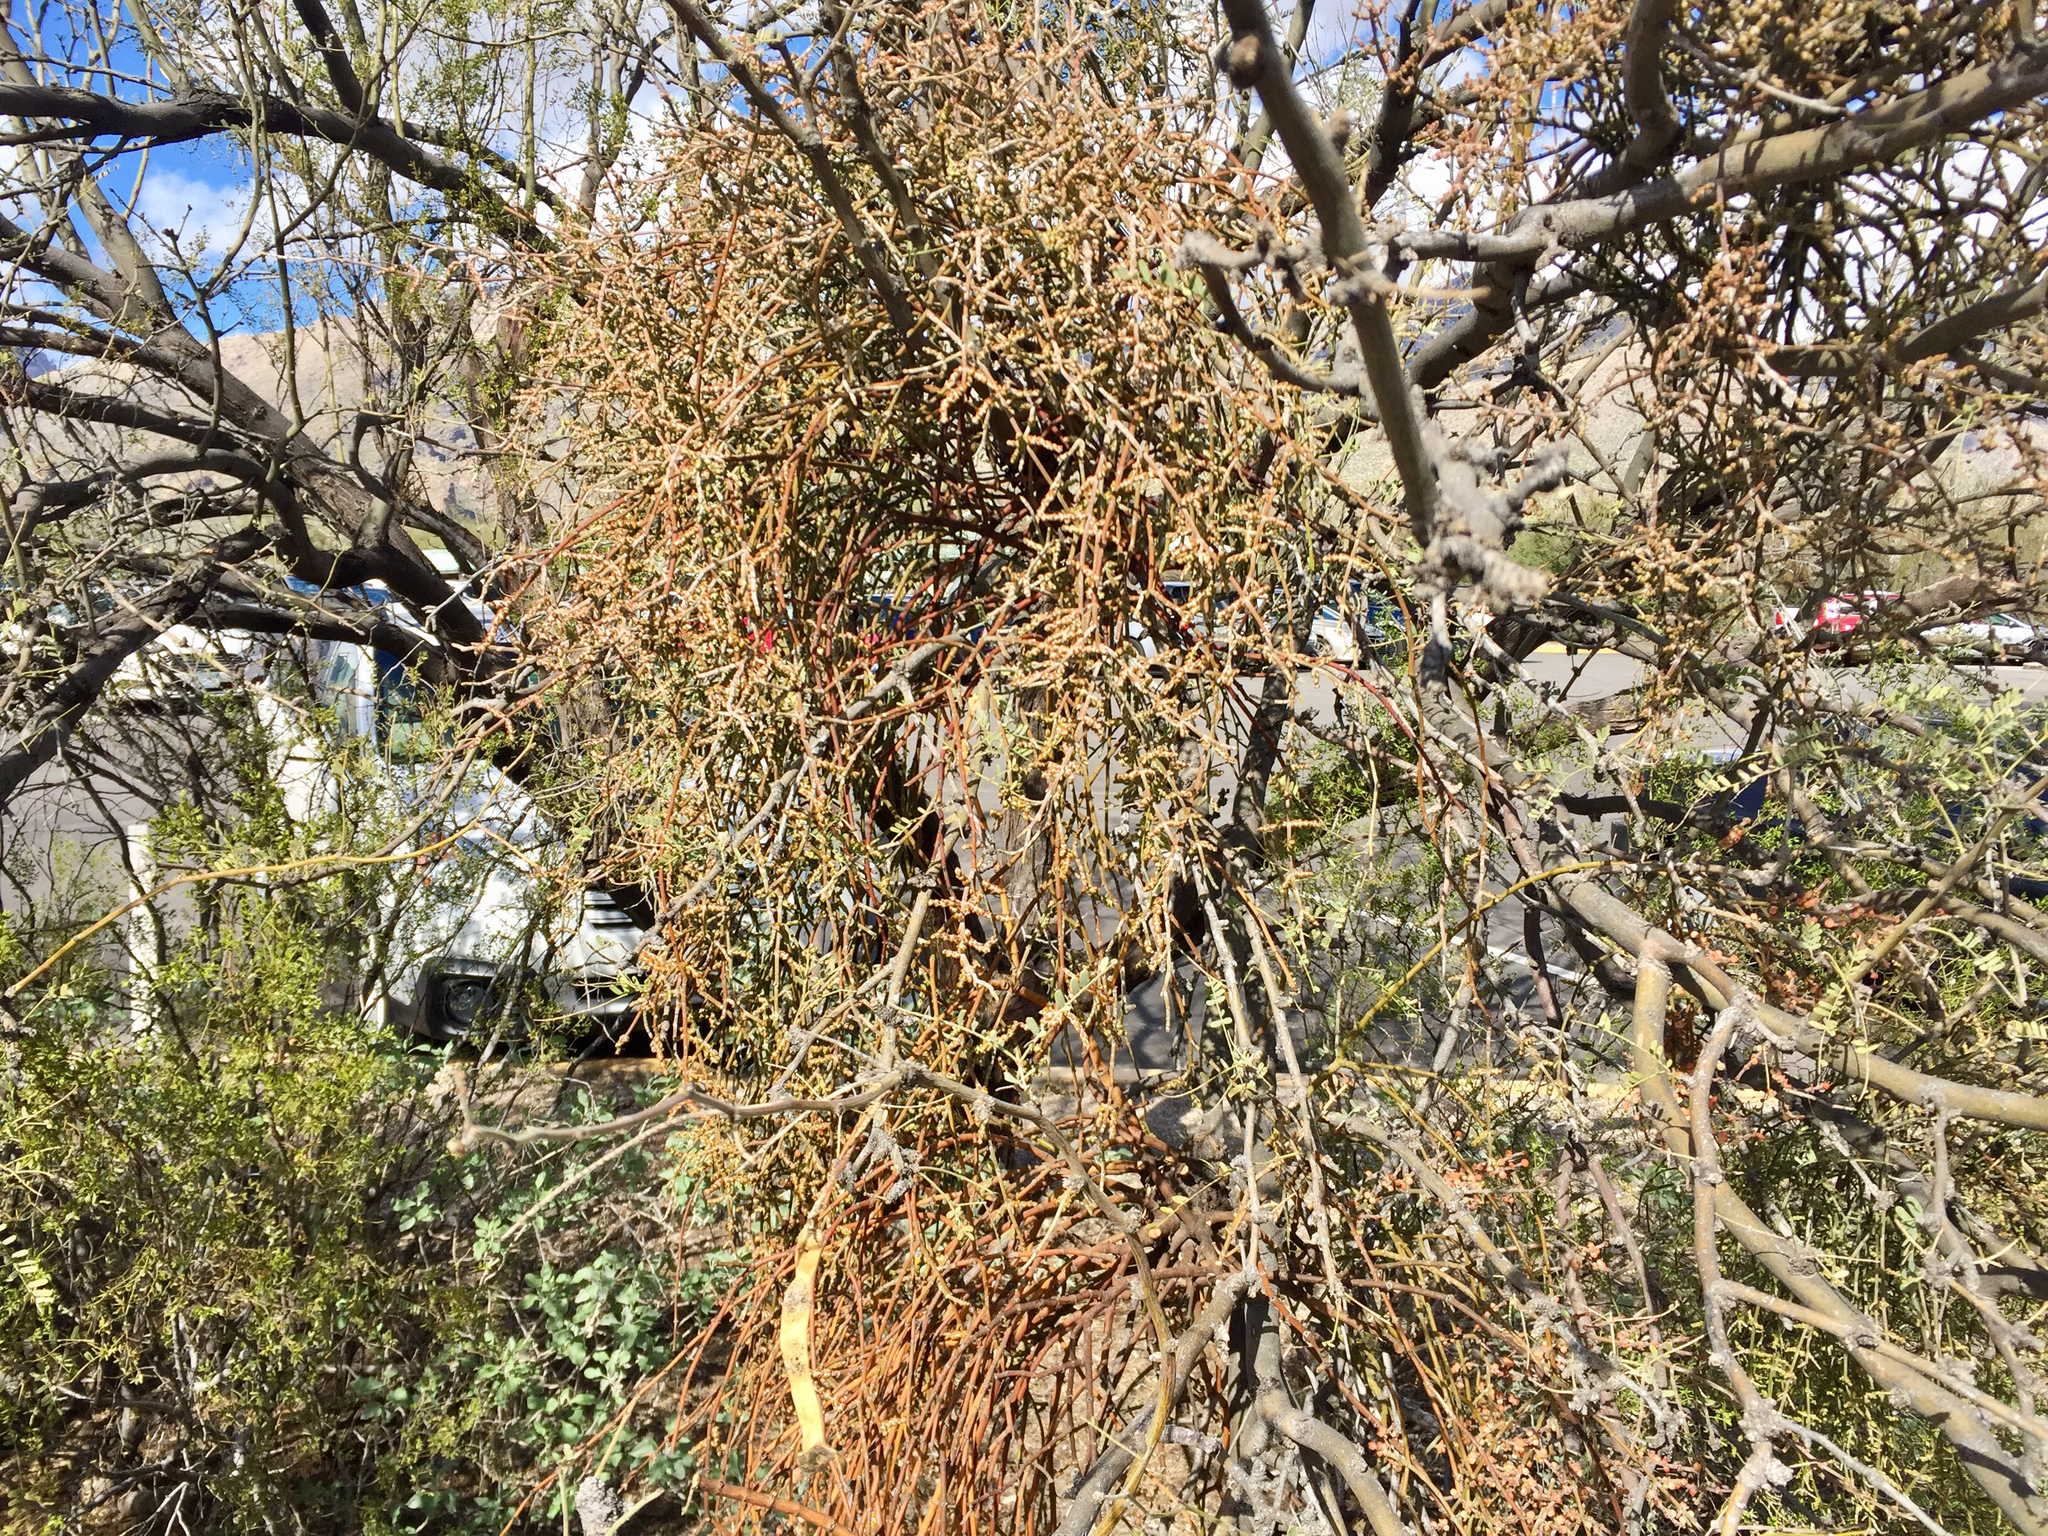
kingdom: Plantae
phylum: Tracheophyta
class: Magnoliopsida
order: Santalales
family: Viscaceae
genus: Phoradendron
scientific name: Phoradendron californicum
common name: Acacia mistletoe
